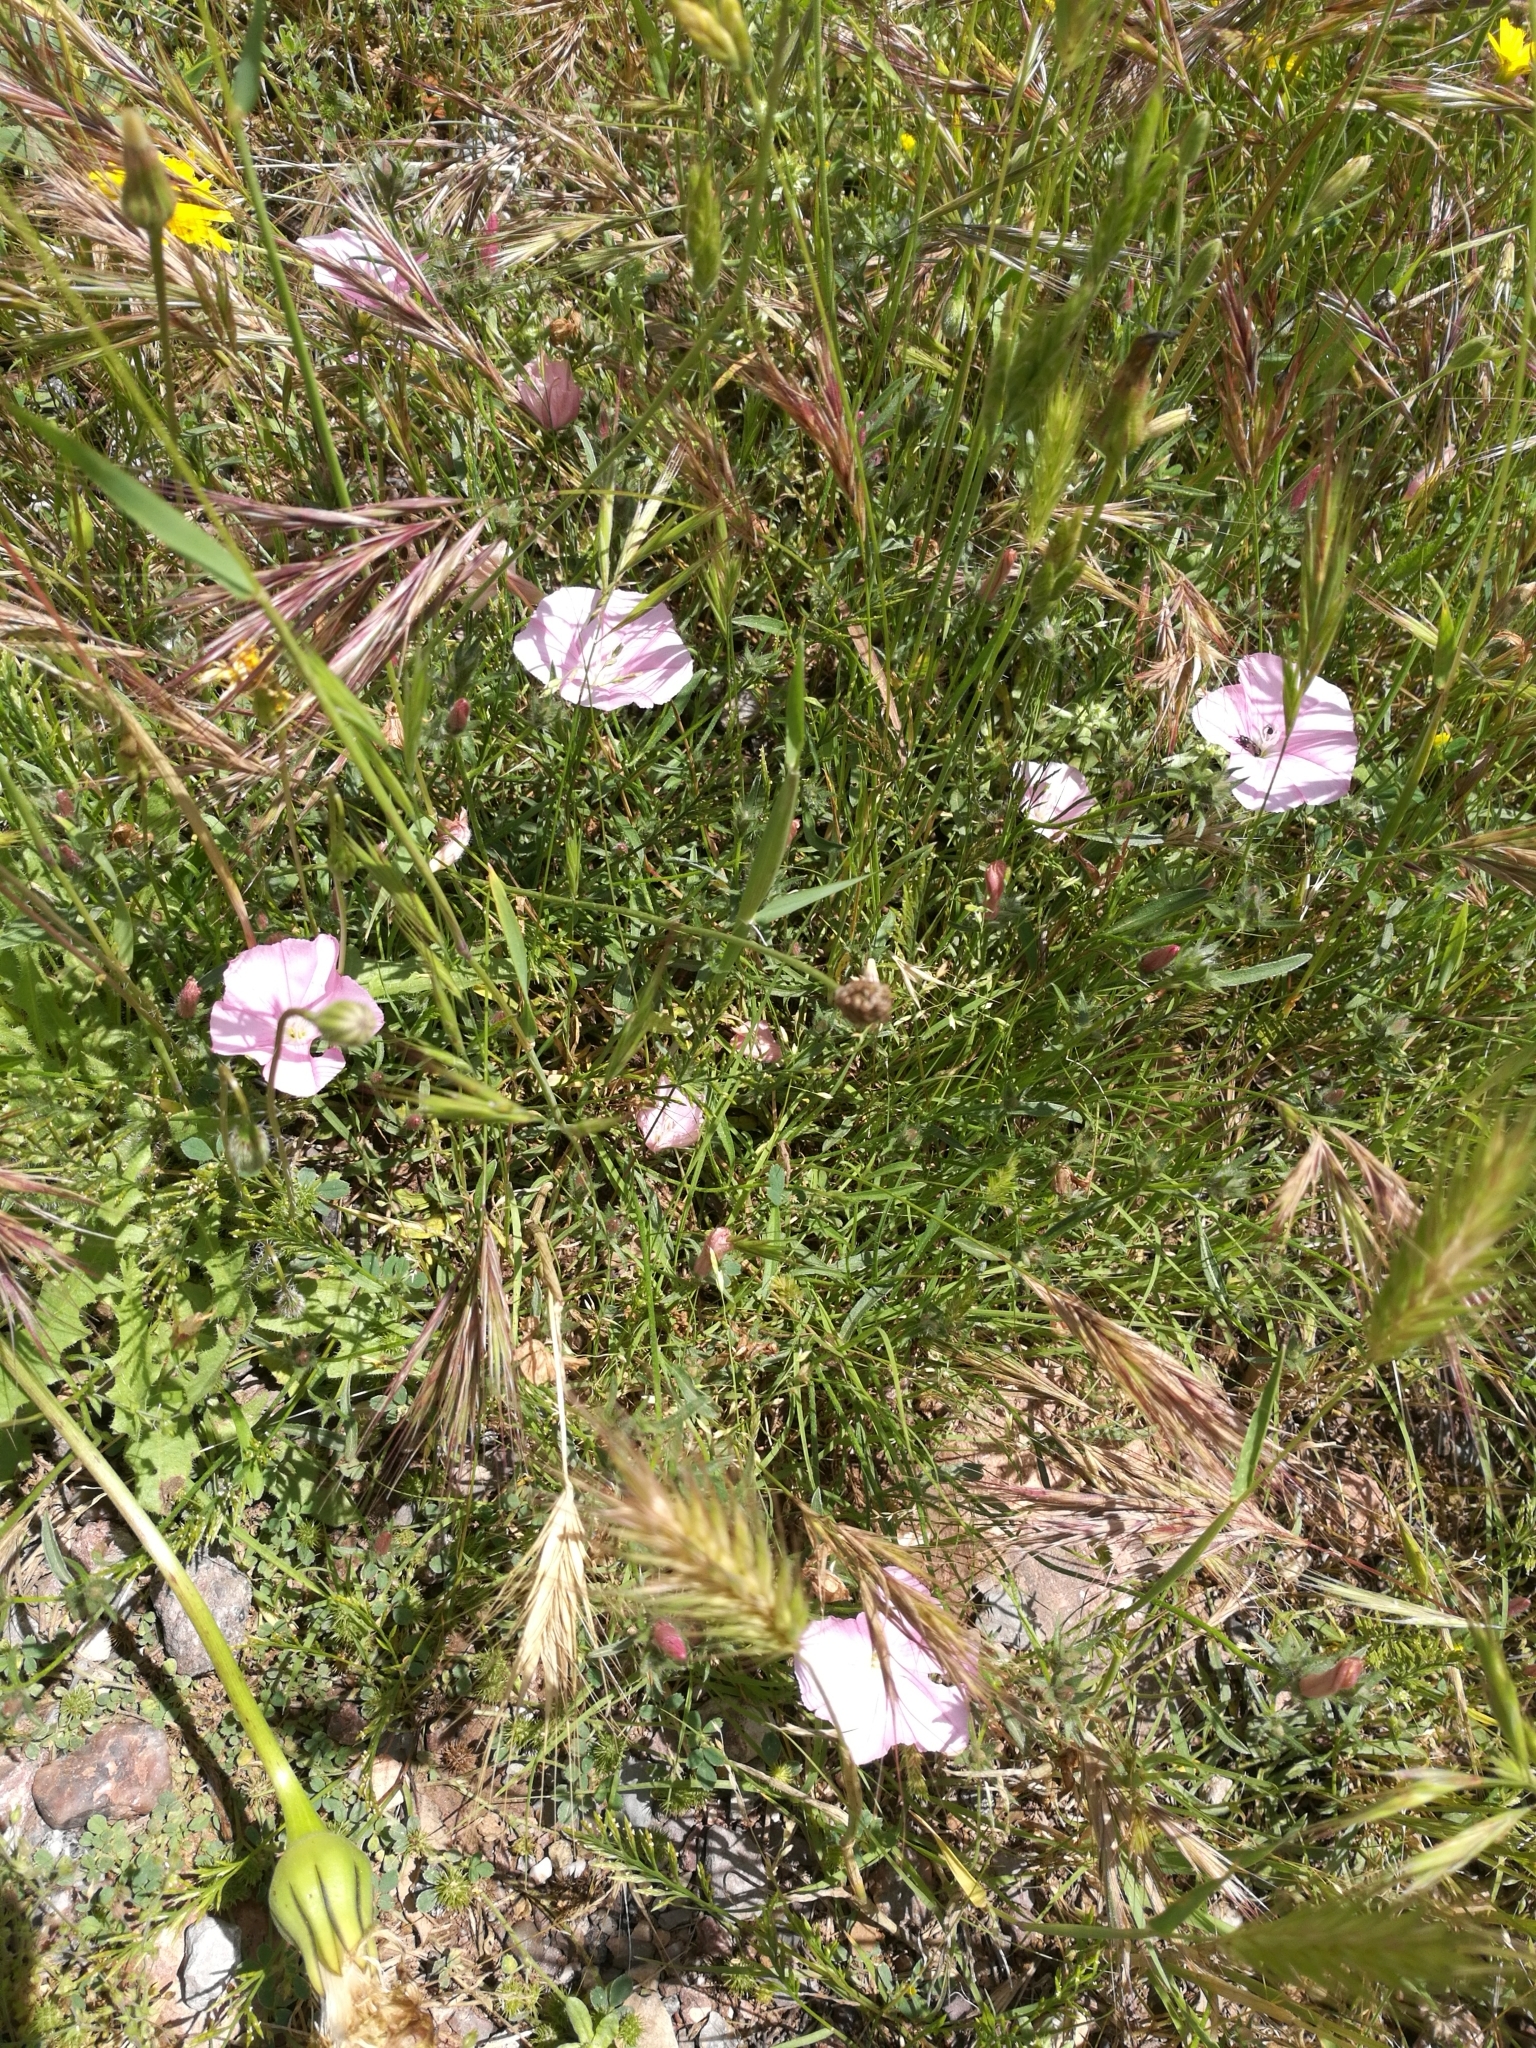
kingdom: Plantae
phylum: Tracheophyta
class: Magnoliopsida
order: Solanales
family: Convolvulaceae
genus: Convolvulus
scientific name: Convolvulus cantabrica
